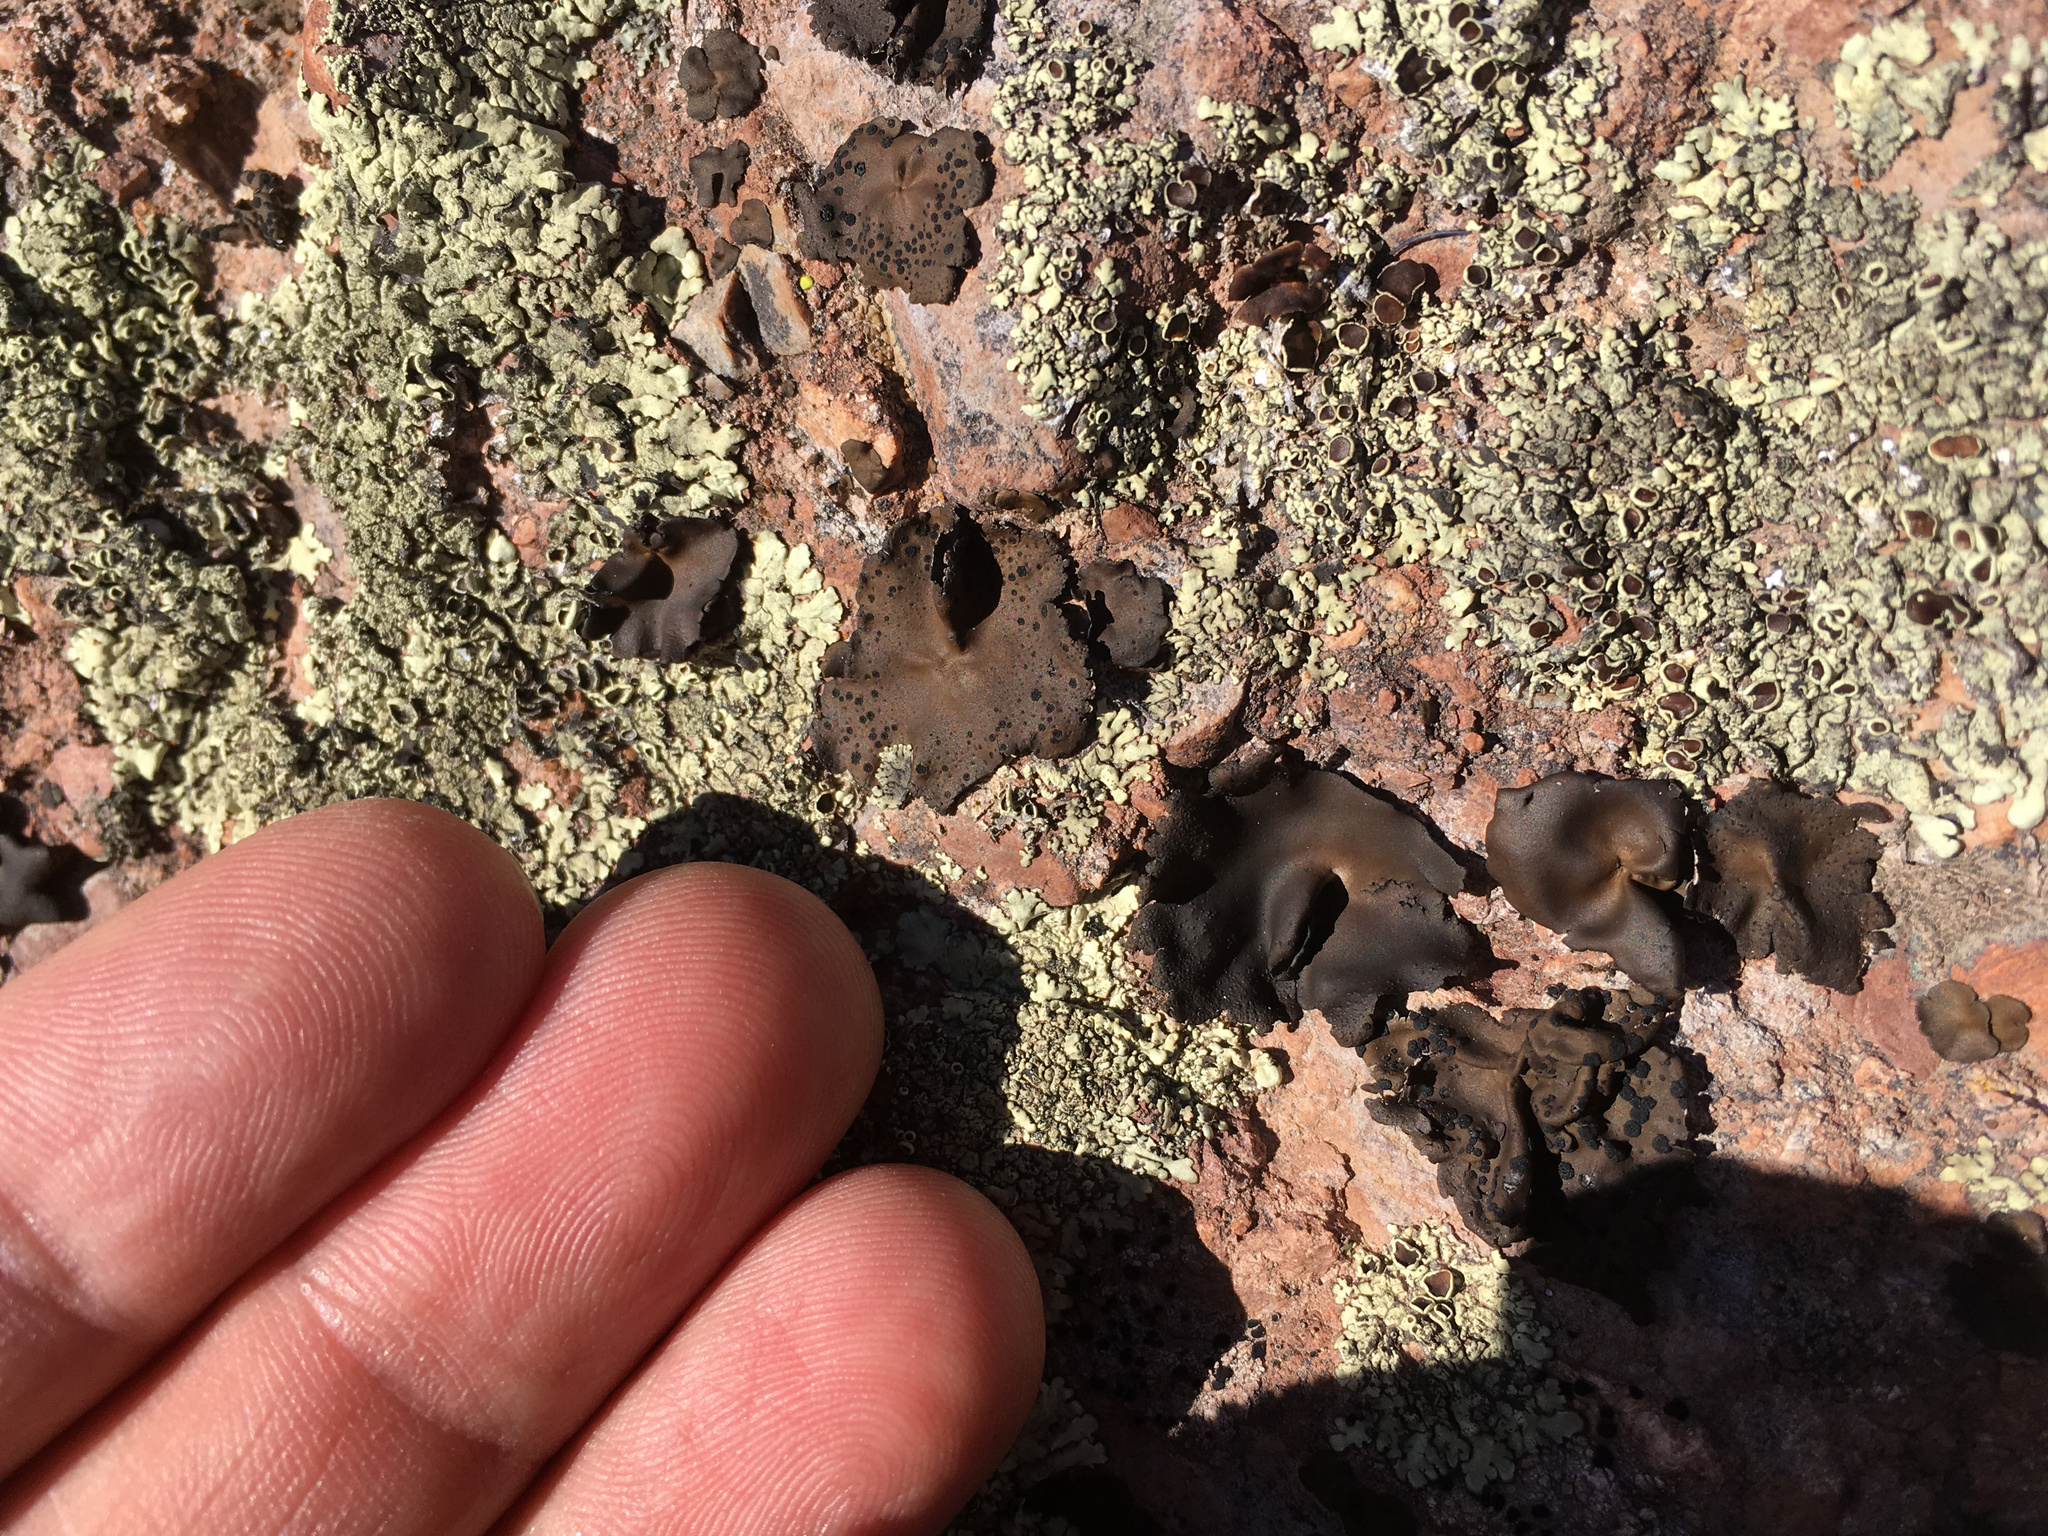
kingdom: Fungi
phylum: Ascomycota
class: Lecanoromycetes
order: Umbilicariales
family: Umbilicariaceae
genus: Umbilicaria
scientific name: Umbilicaria phaea
